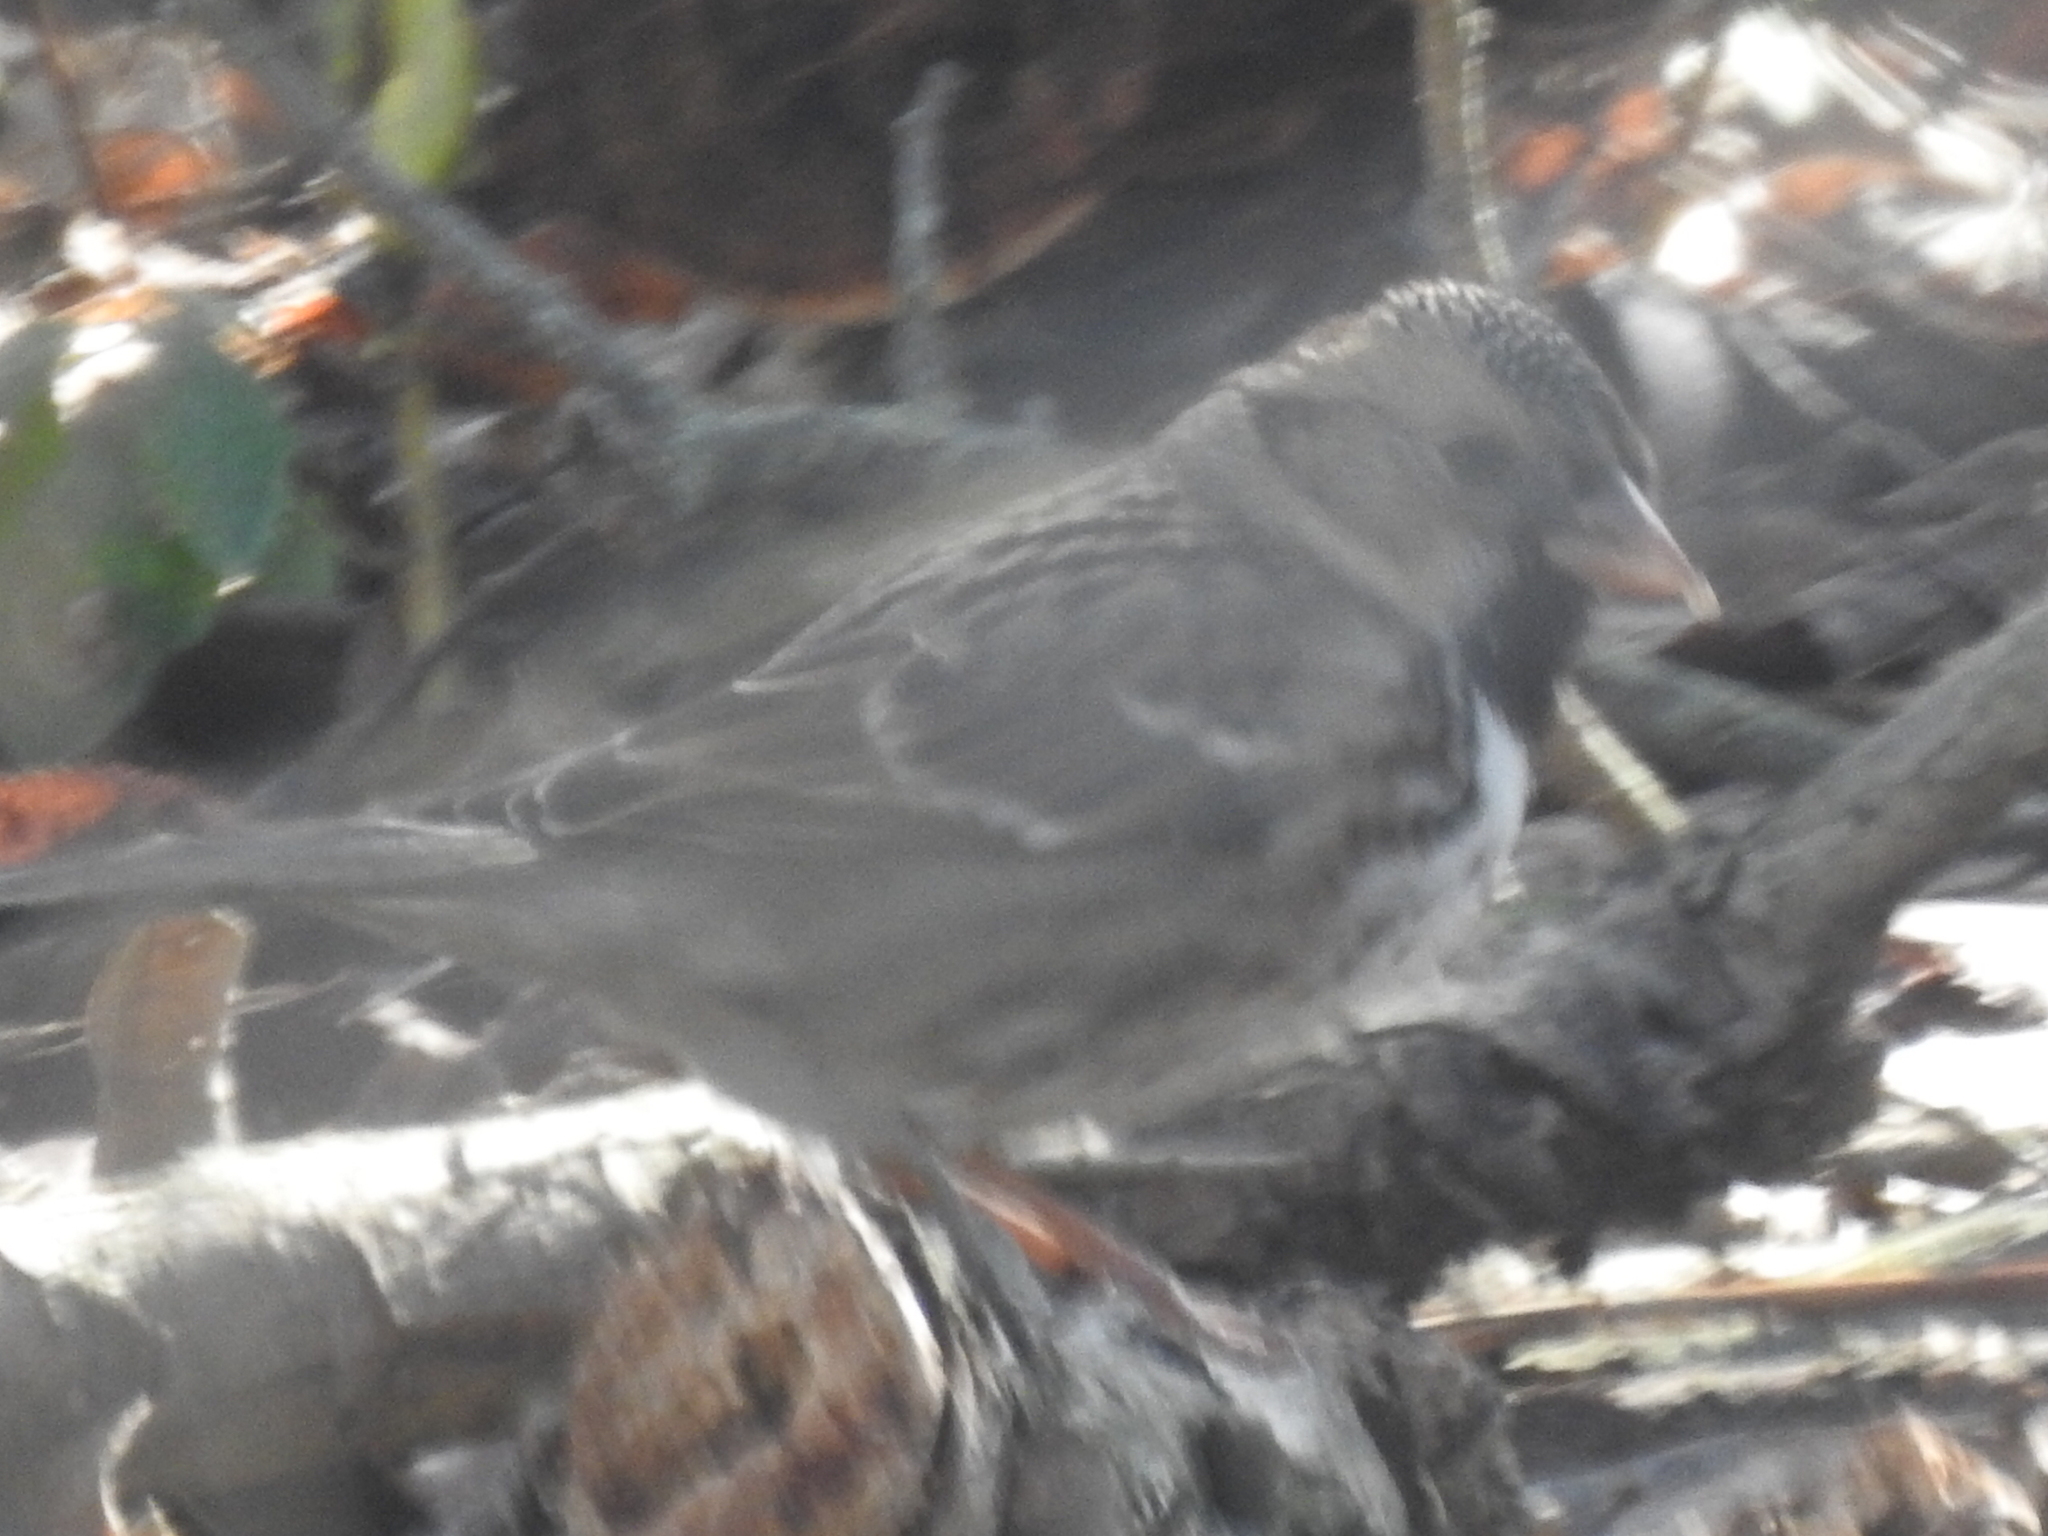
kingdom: Animalia
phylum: Chordata
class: Aves
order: Passeriformes
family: Passerellidae
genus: Zonotrichia
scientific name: Zonotrichia querula
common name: Harris's sparrow
